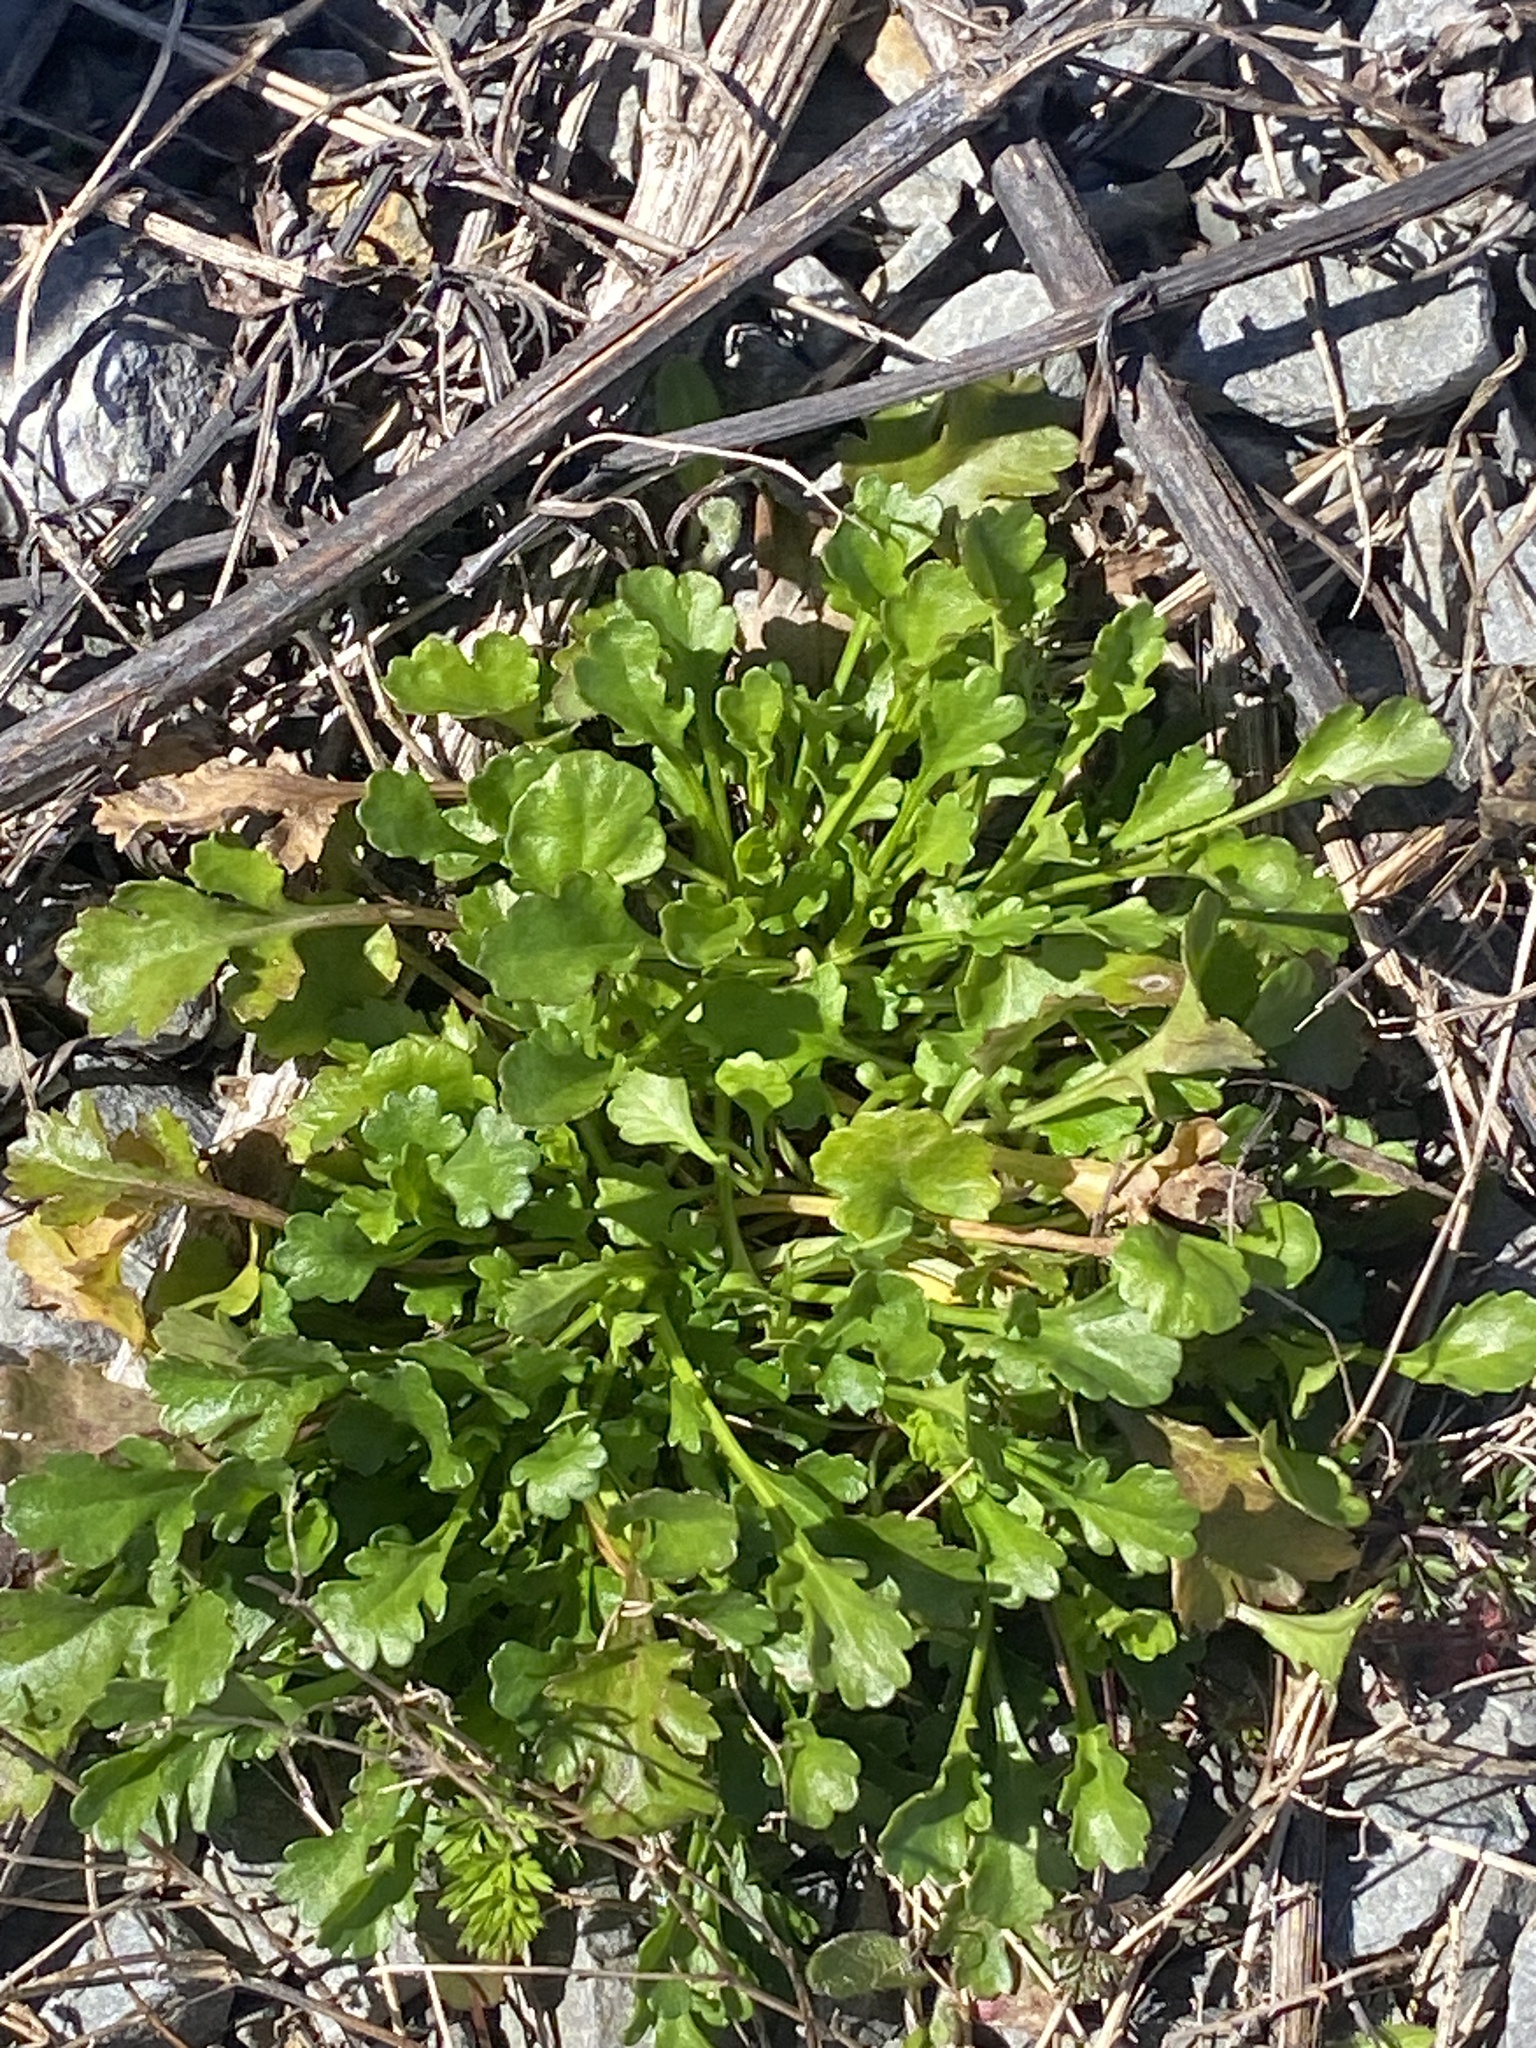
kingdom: Plantae
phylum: Tracheophyta
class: Magnoliopsida
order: Asterales
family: Asteraceae
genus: Leucanthemum
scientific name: Leucanthemum vulgare
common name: Oxeye daisy
